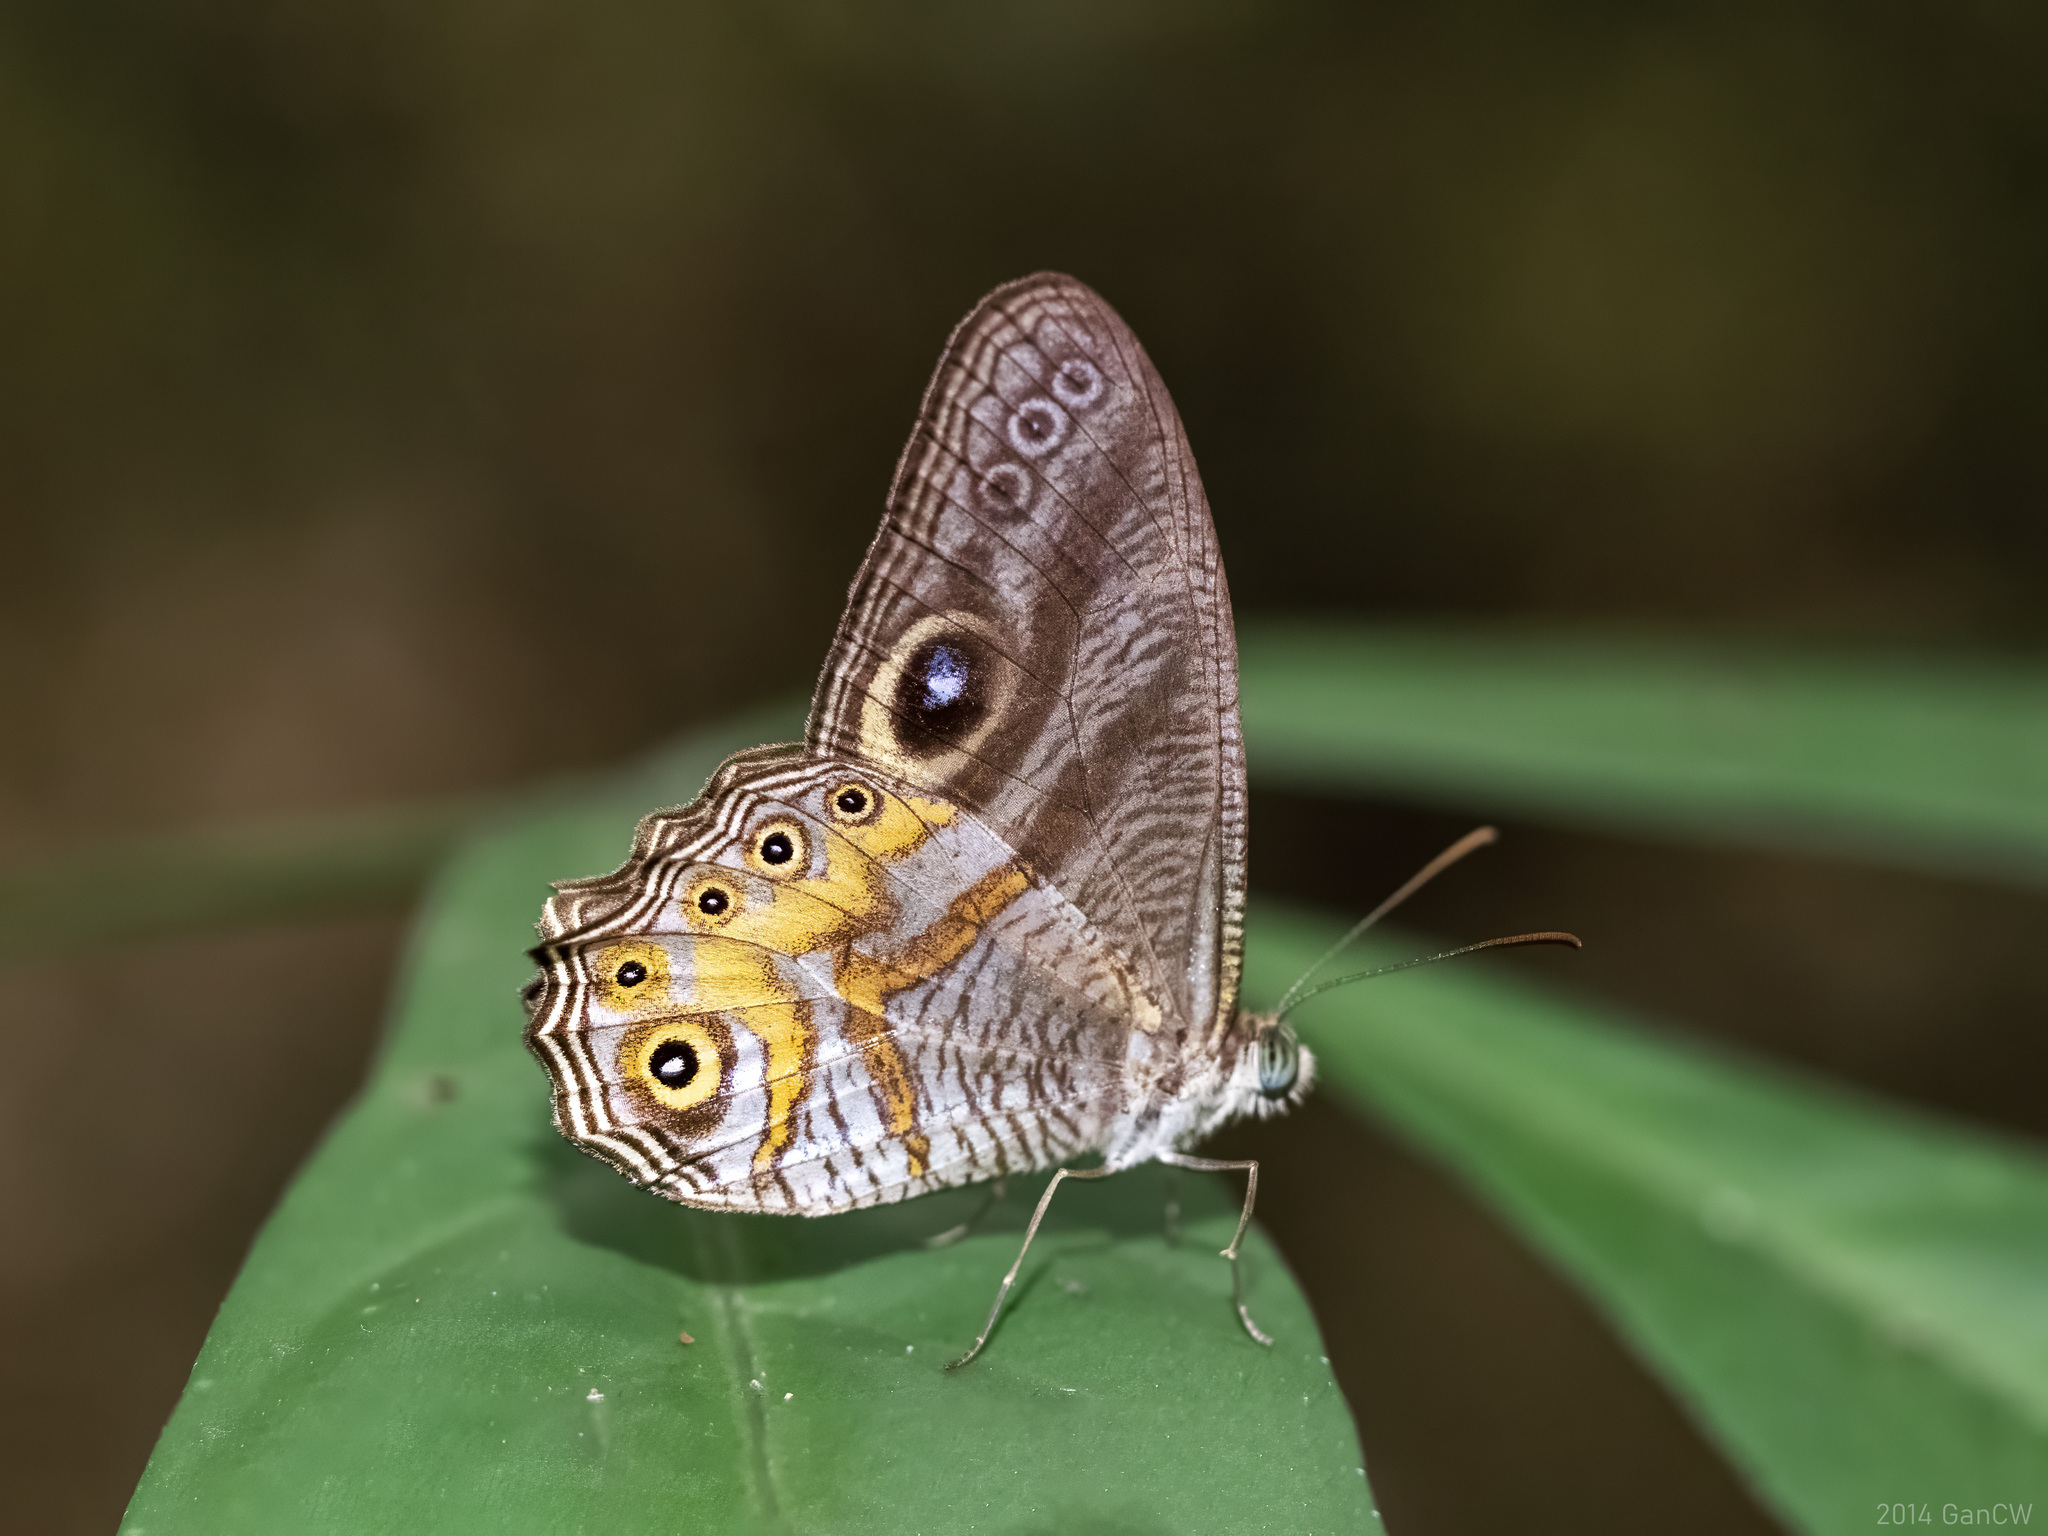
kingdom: Animalia
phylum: Arthropoda
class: Insecta
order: Lepidoptera
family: Nymphalidae
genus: Erites
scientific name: Erites angularis
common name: Angled cyclops
